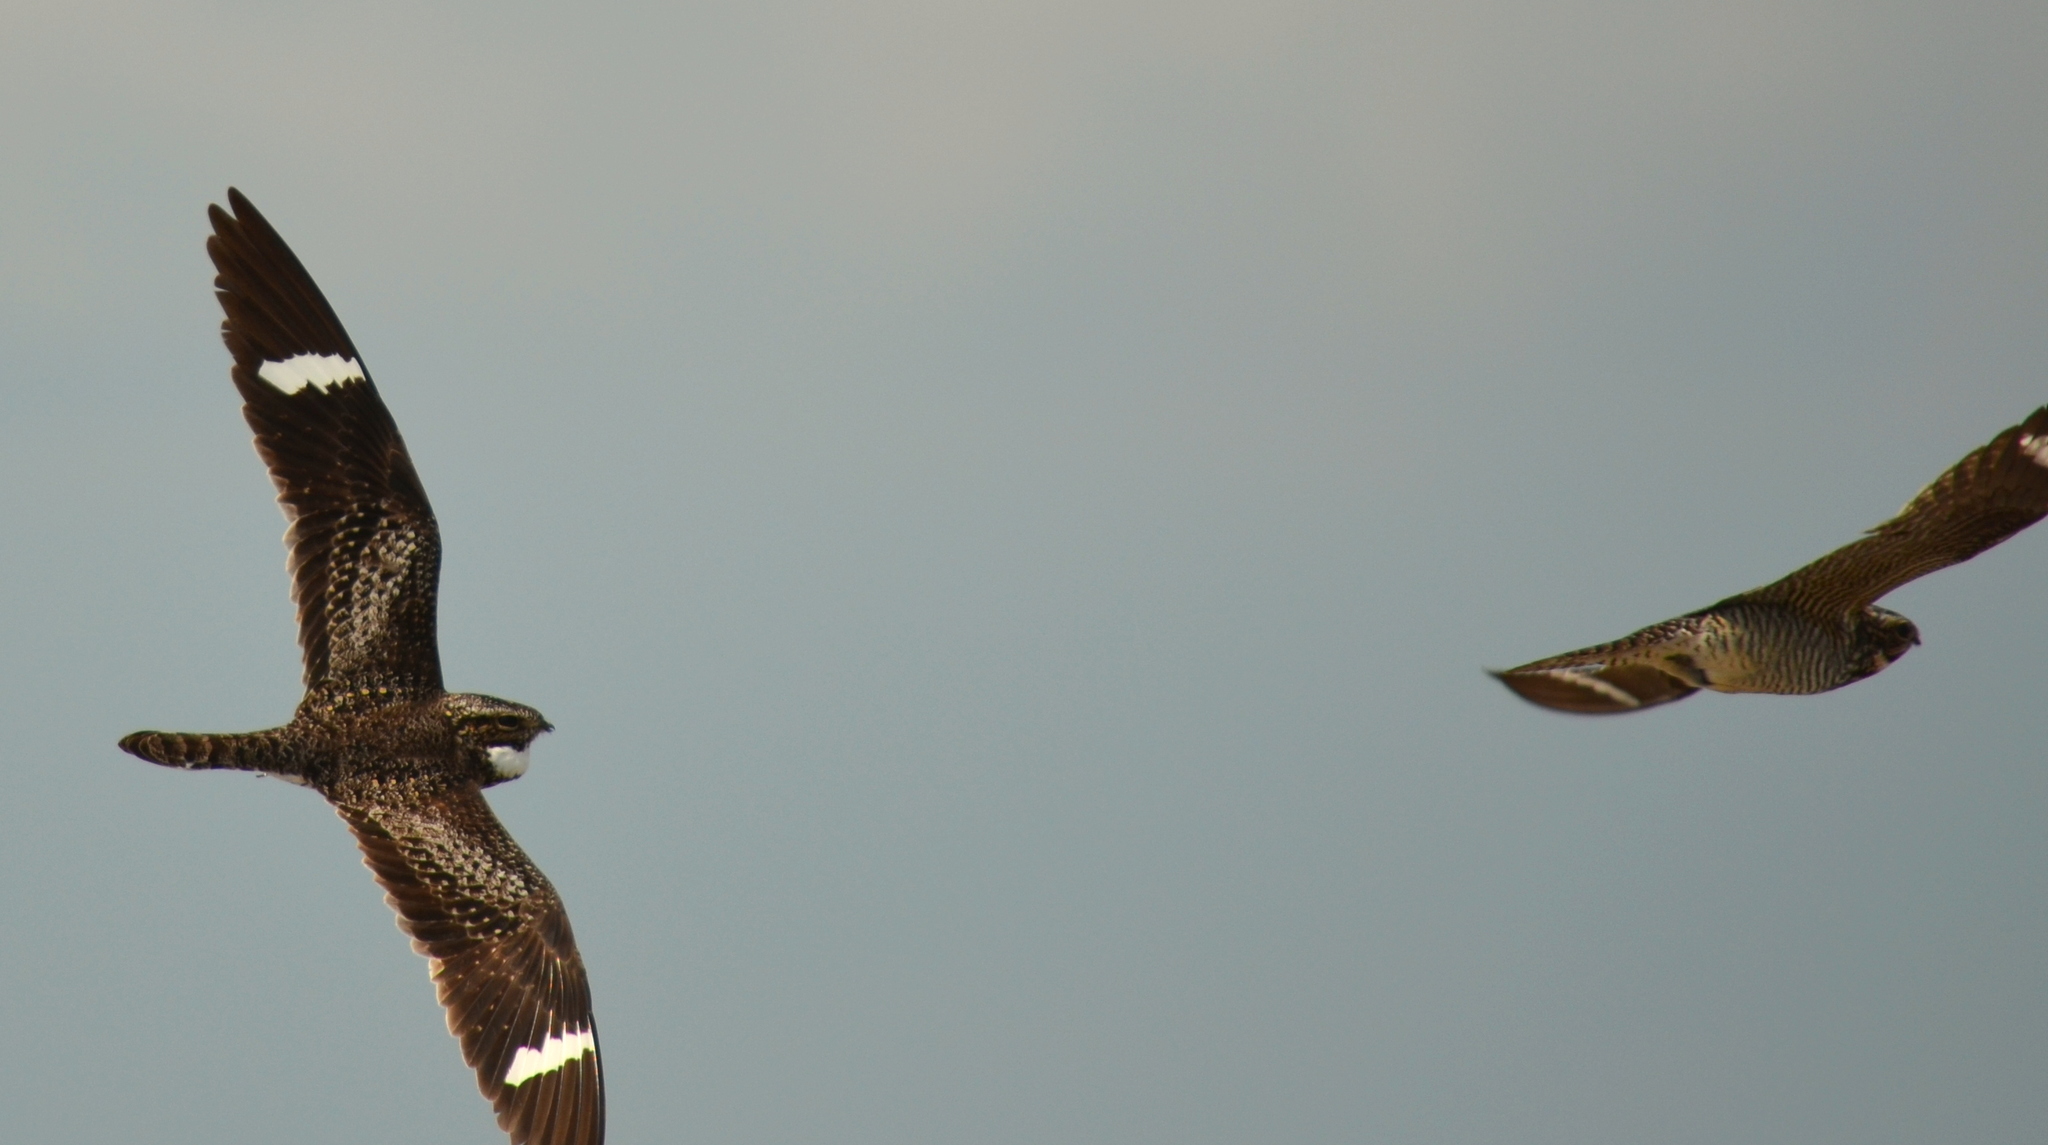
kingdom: Animalia
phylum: Chordata
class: Aves
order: Caprimulgiformes
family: Caprimulgidae
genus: Chordeiles
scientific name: Chordeiles minor
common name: Common nighthawk
